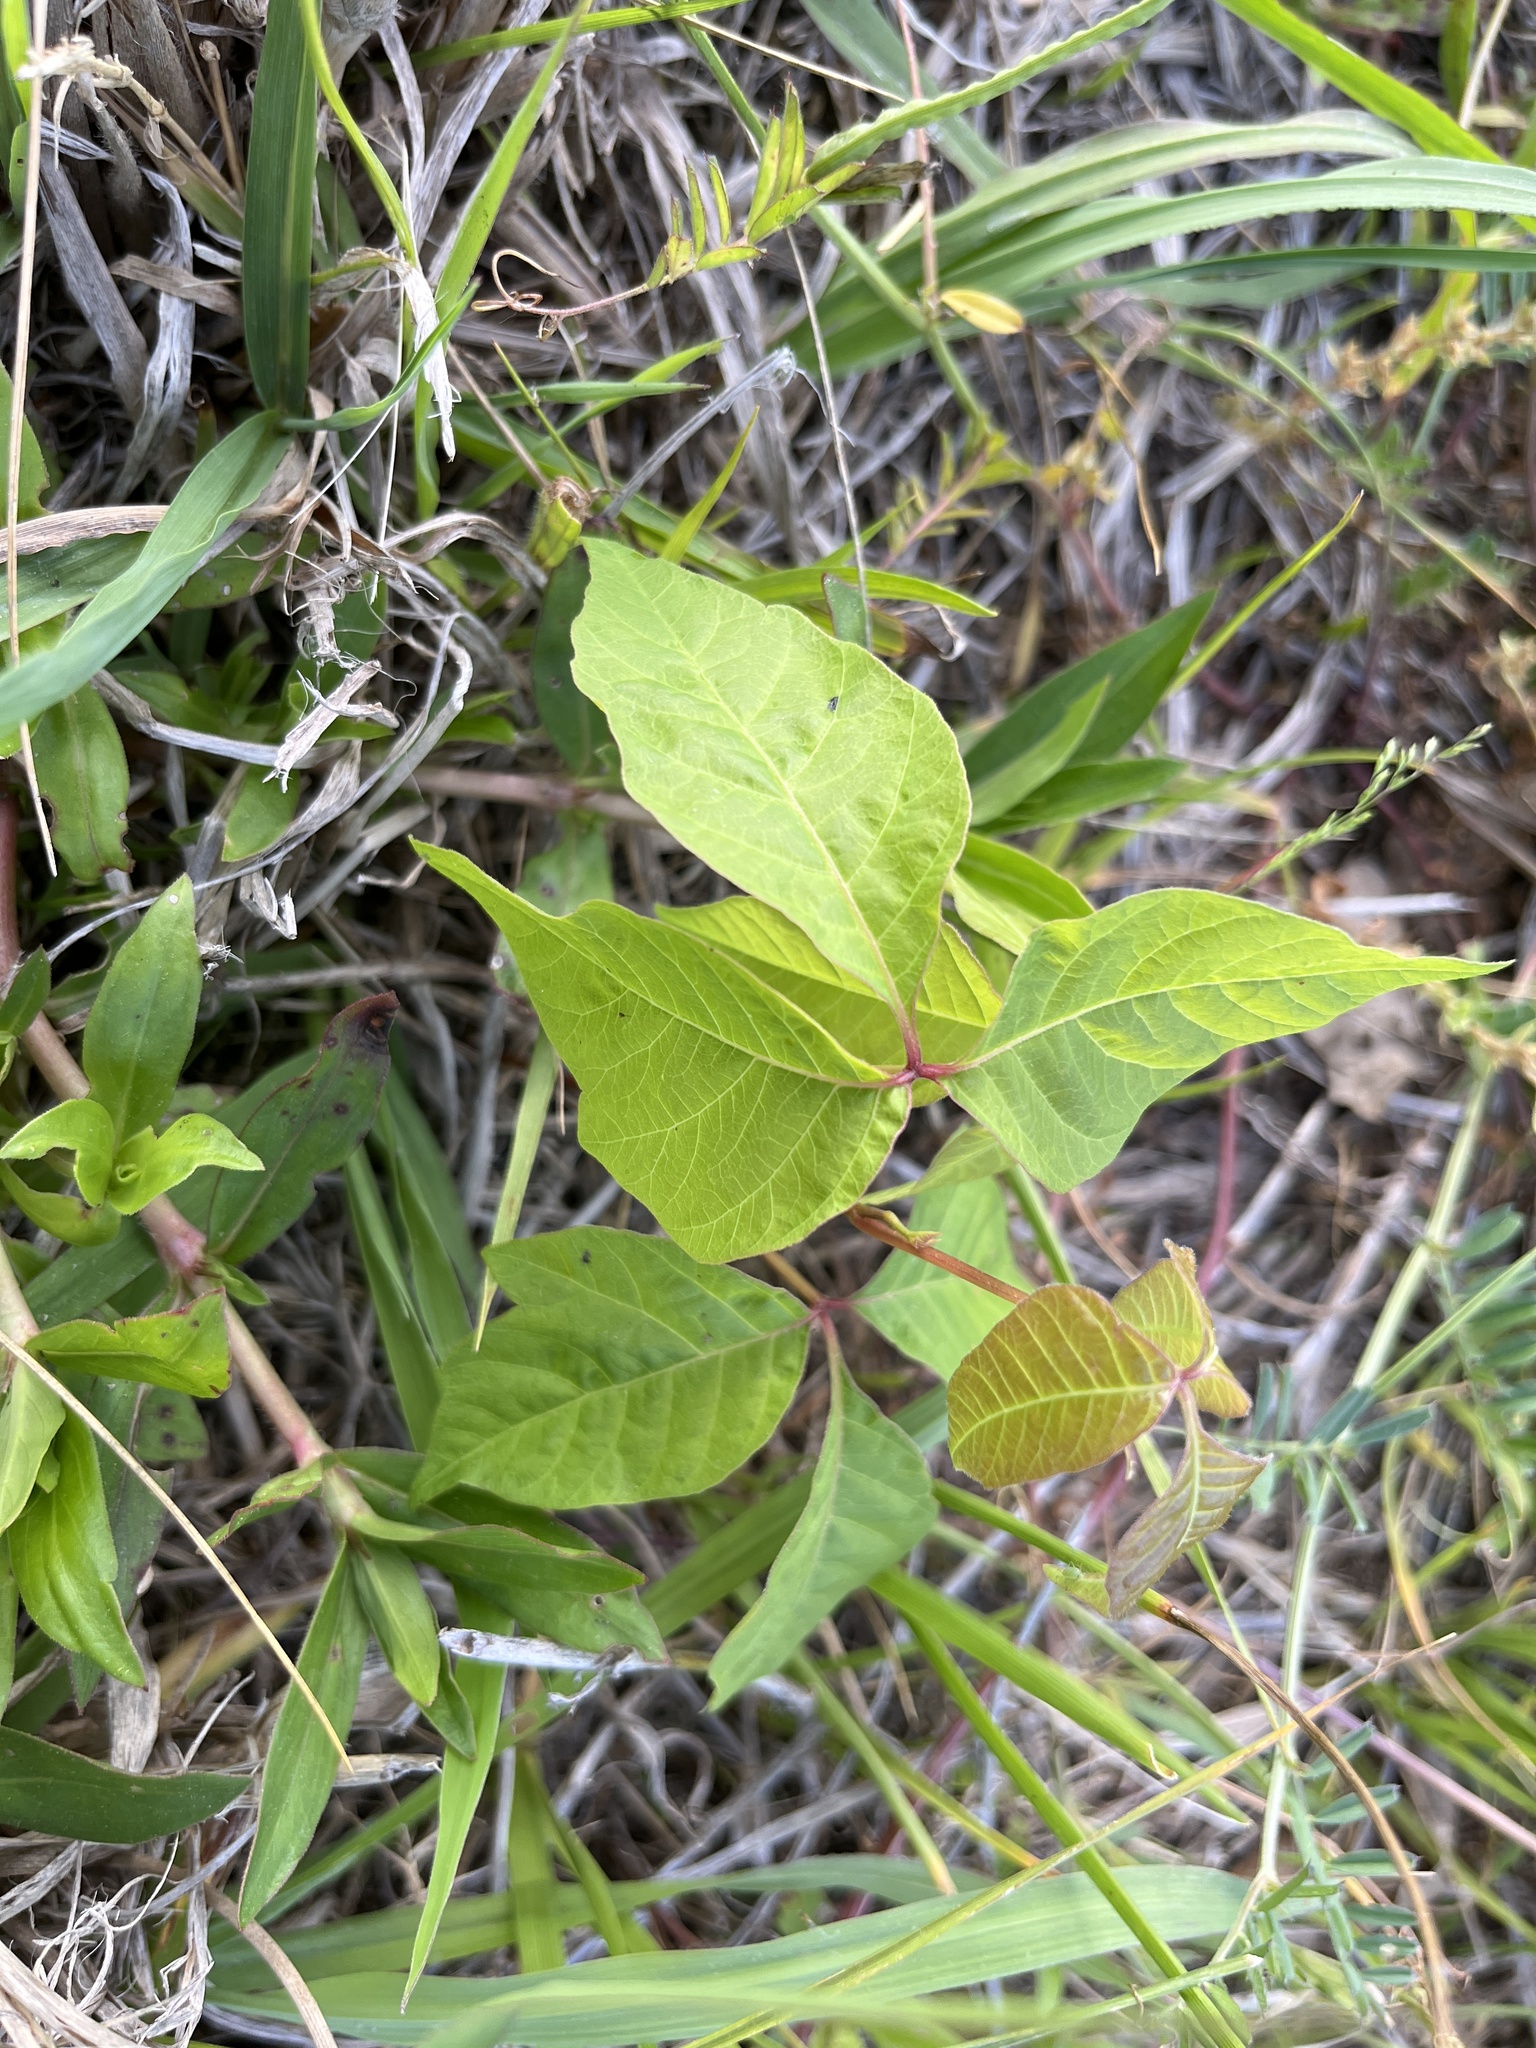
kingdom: Plantae
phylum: Tracheophyta
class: Magnoliopsida
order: Sapindales
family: Anacardiaceae
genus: Toxicodendron
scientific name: Toxicodendron radicans
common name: Poison ivy
